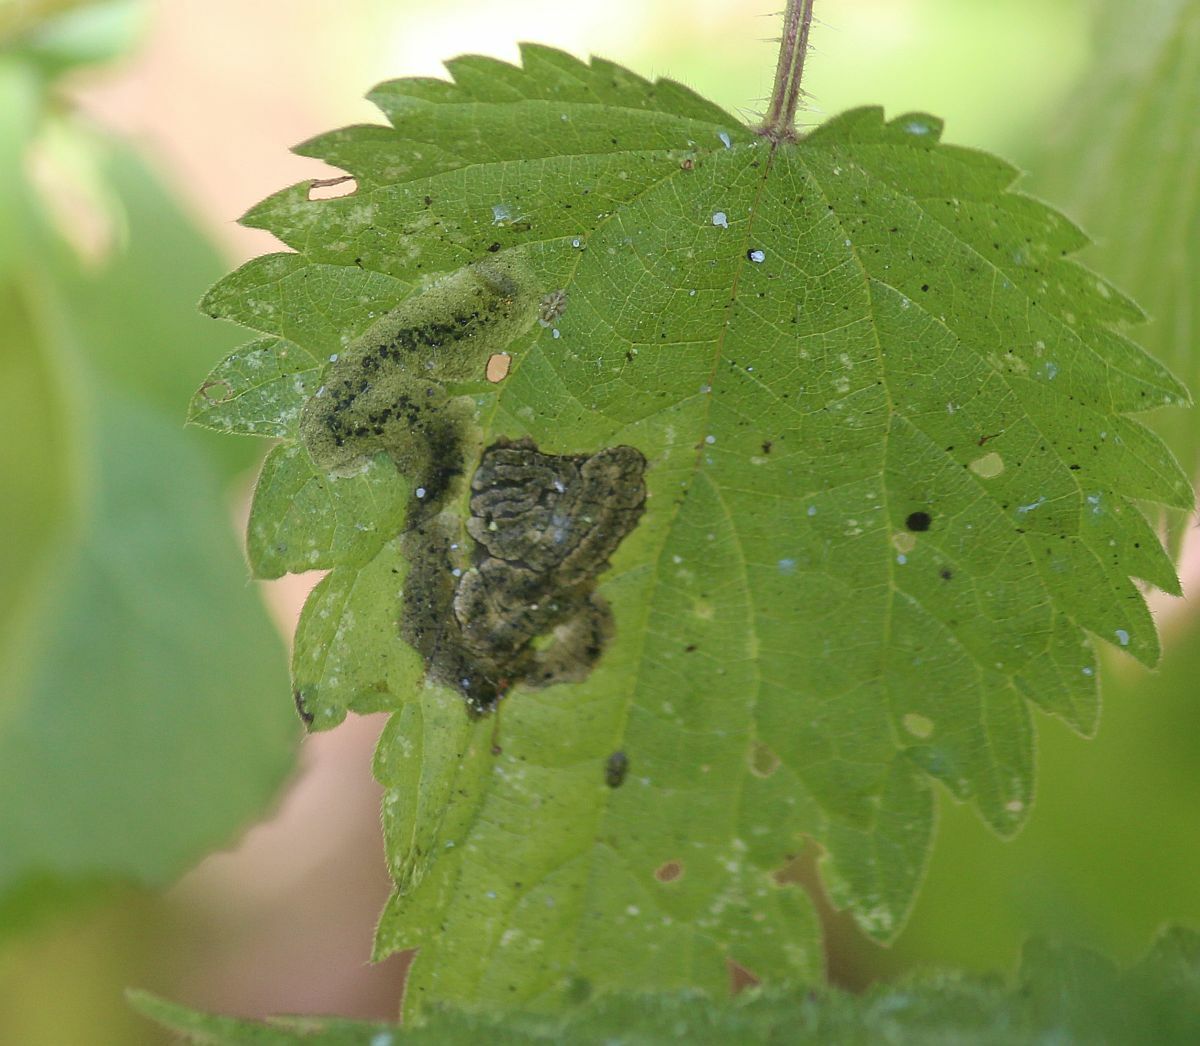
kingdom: Animalia
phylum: Arthropoda
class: Insecta
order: Diptera
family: Agromyzidae
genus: Agromyza
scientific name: Agromyza anthracina
